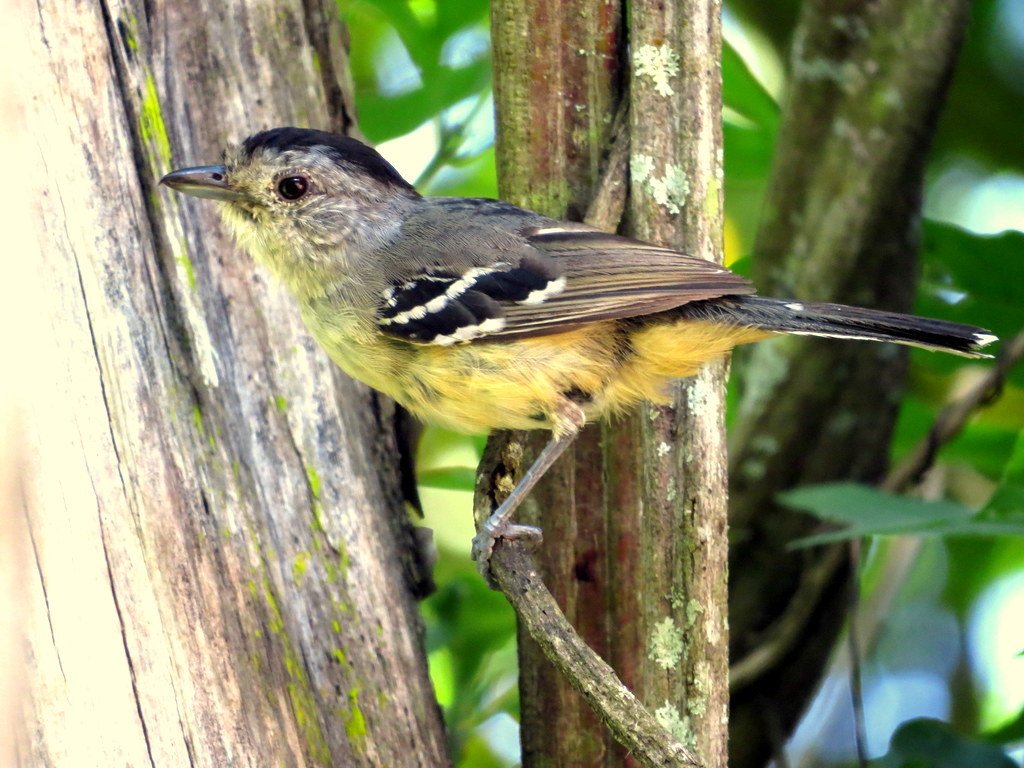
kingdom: Animalia
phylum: Chordata
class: Aves
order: Passeriformes
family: Thamnophilidae
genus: Thamnophilus
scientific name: Thamnophilus caerulescens
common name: Variable antshrike
